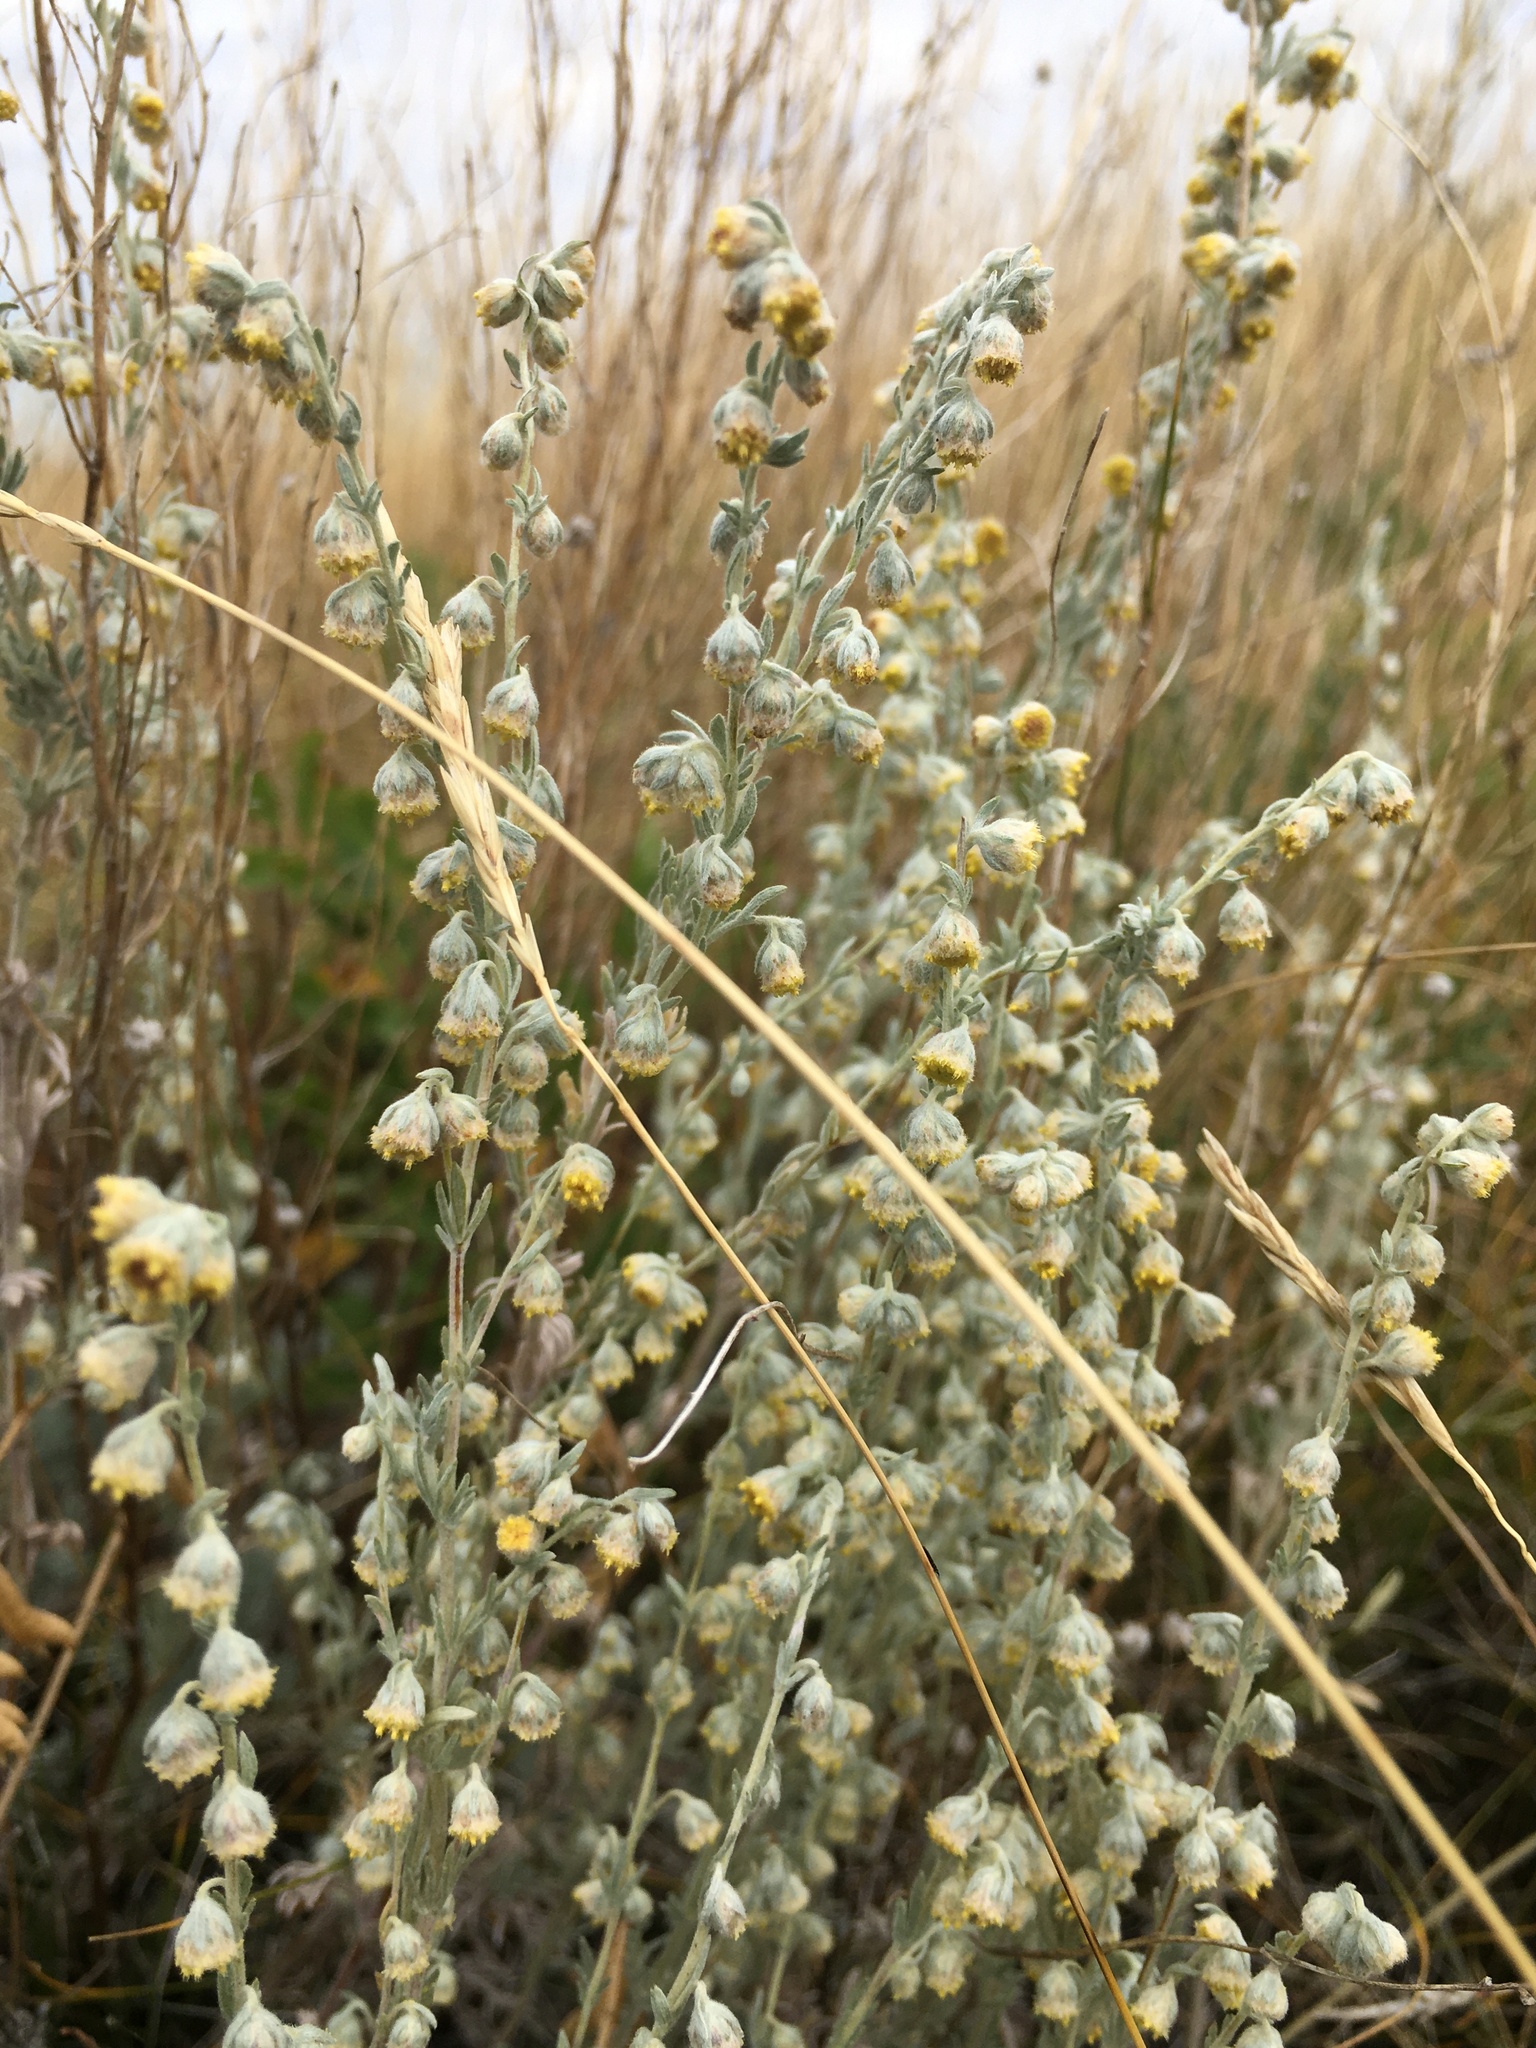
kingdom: Plantae
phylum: Tracheophyta
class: Magnoliopsida
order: Asterales
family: Asteraceae
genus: Artemisia
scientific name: Artemisia frigida
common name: Prairie sagewort
